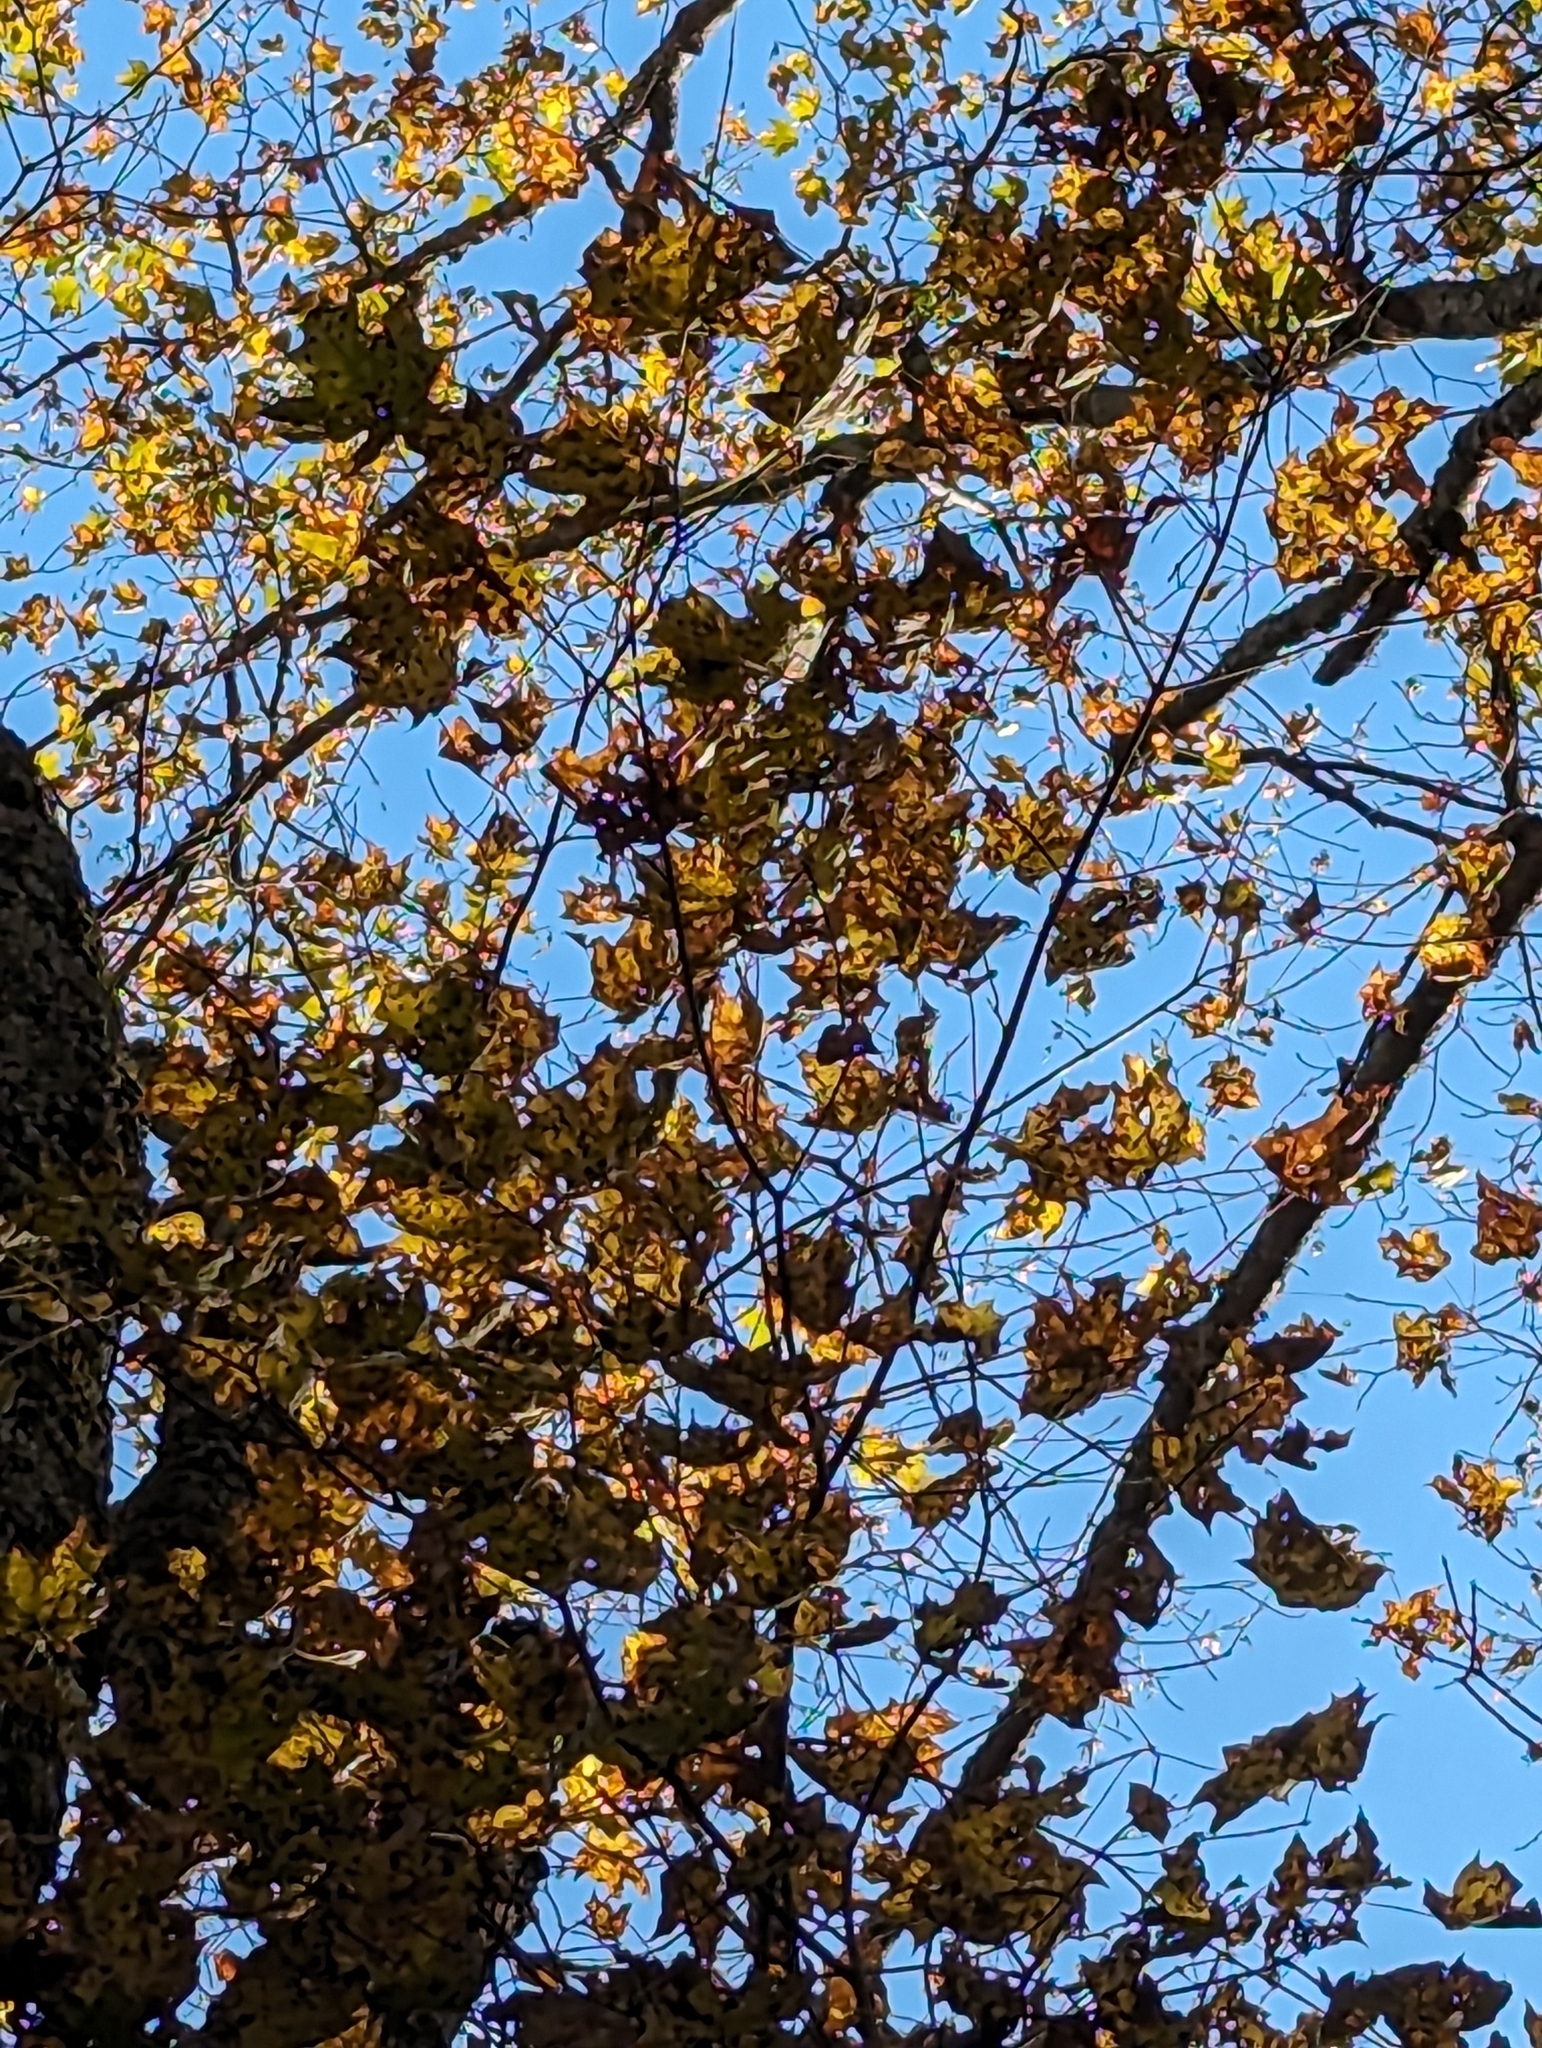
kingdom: Plantae
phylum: Tracheophyta
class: Magnoliopsida
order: Sapindales
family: Sapindaceae
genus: Acer
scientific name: Acer saccharum
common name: Sugar maple
